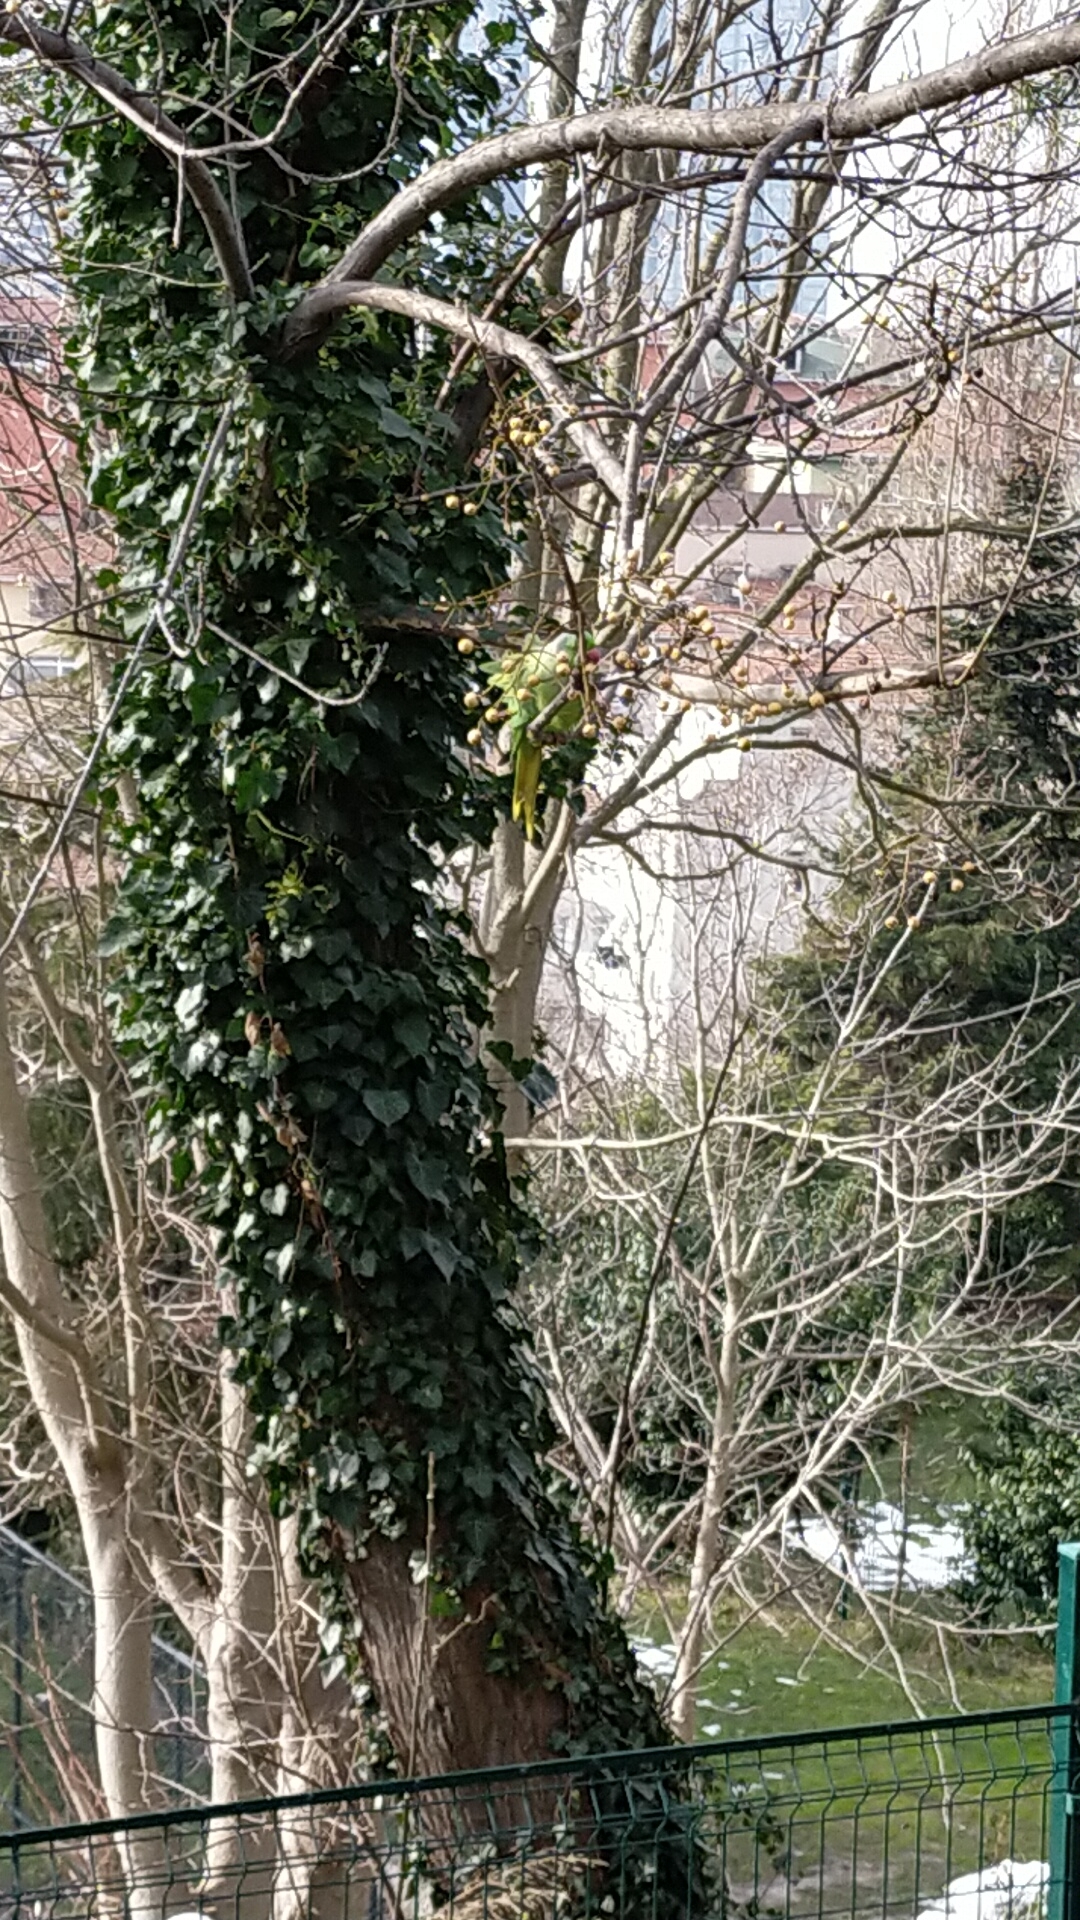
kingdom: Animalia
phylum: Chordata
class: Aves
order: Psittaciformes
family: Psittacidae
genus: Psittacula
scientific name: Psittacula krameri
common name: Rose-ringed parakeet
